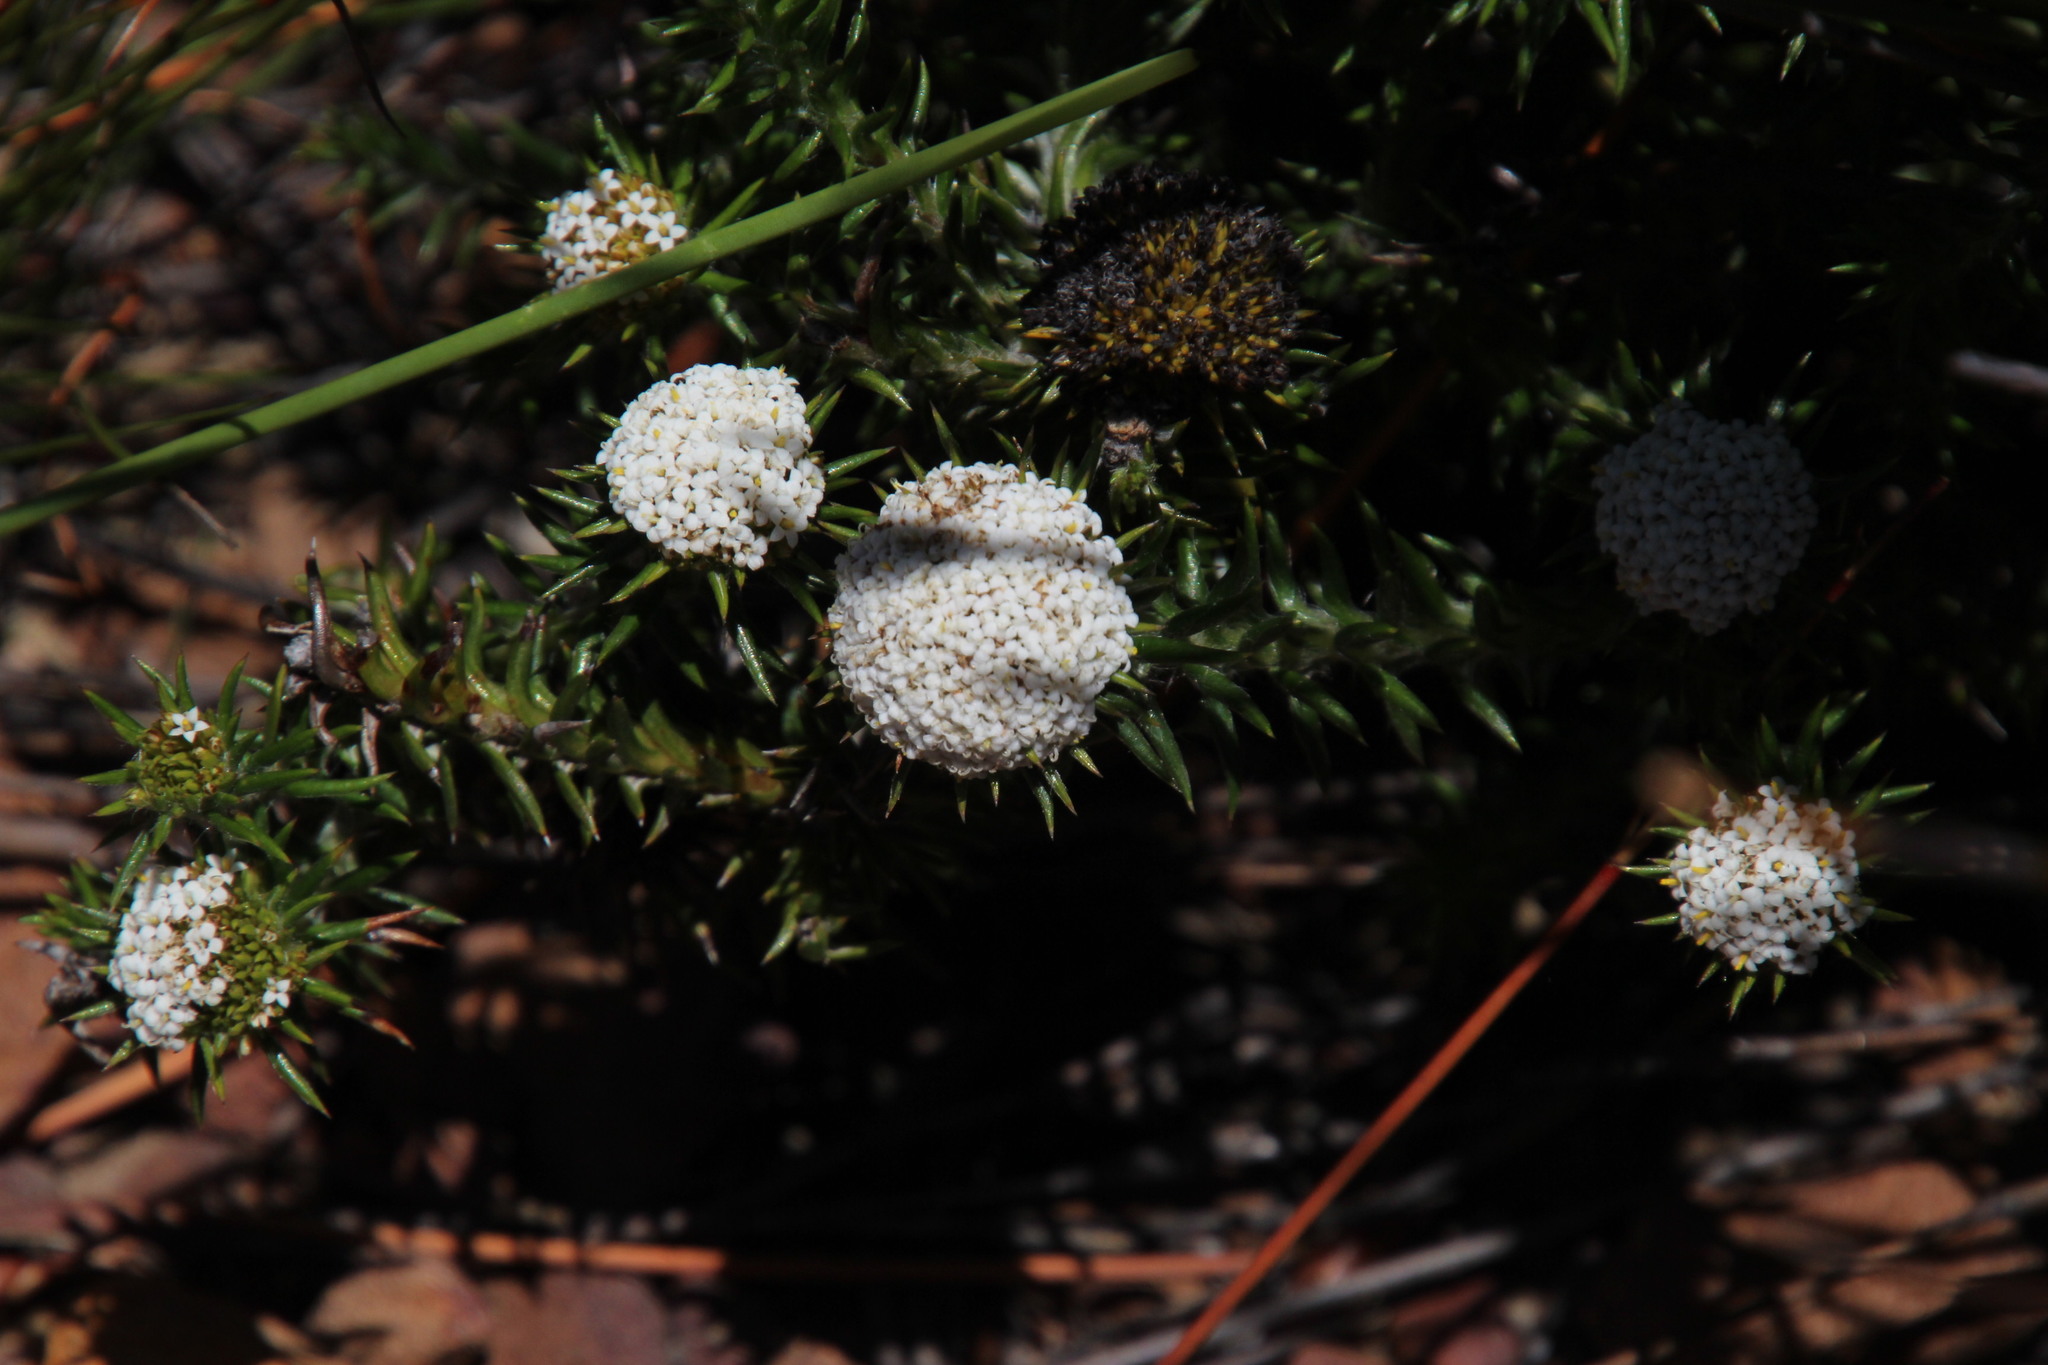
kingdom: Plantae
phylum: Tracheophyta
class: Magnoliopsida
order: Asterales
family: Asteraceae
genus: Stoebe
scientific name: Stoebe aethiopica
